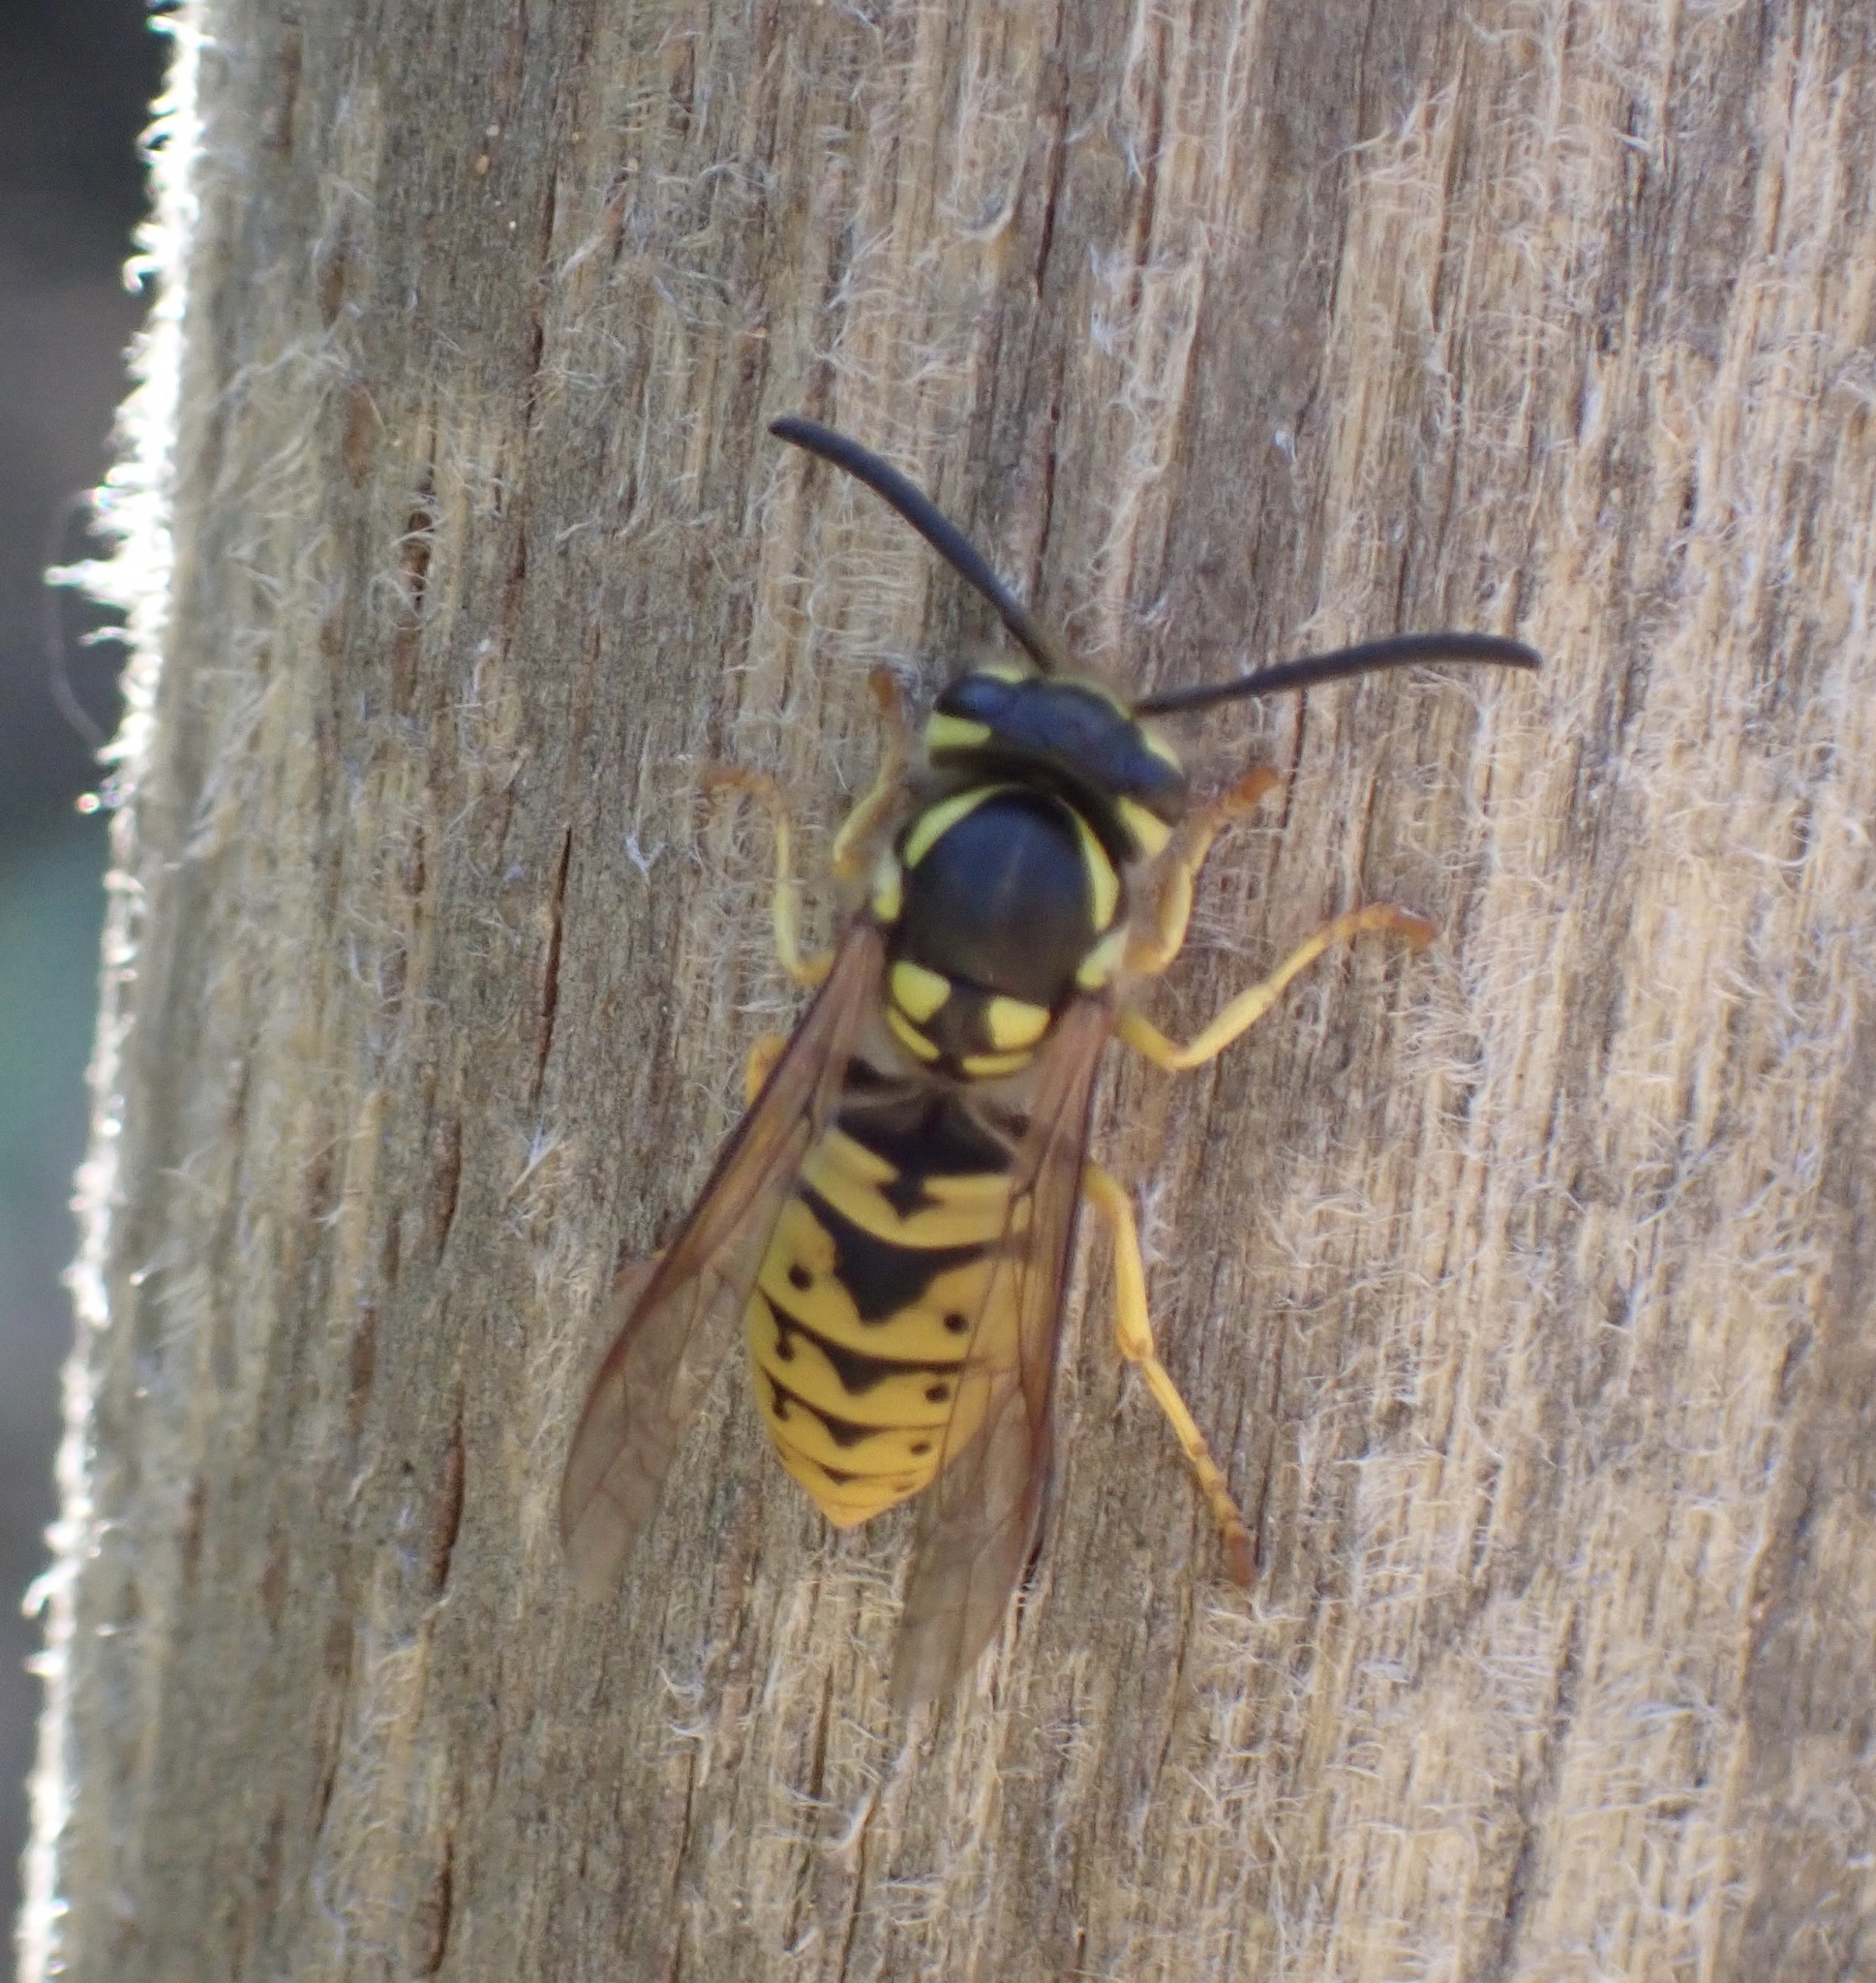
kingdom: Animalia
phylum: Arthropoda
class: Insecta
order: Hymenoptera
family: Vespidae
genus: Vespula
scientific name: Vespula germanica
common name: German wasp
